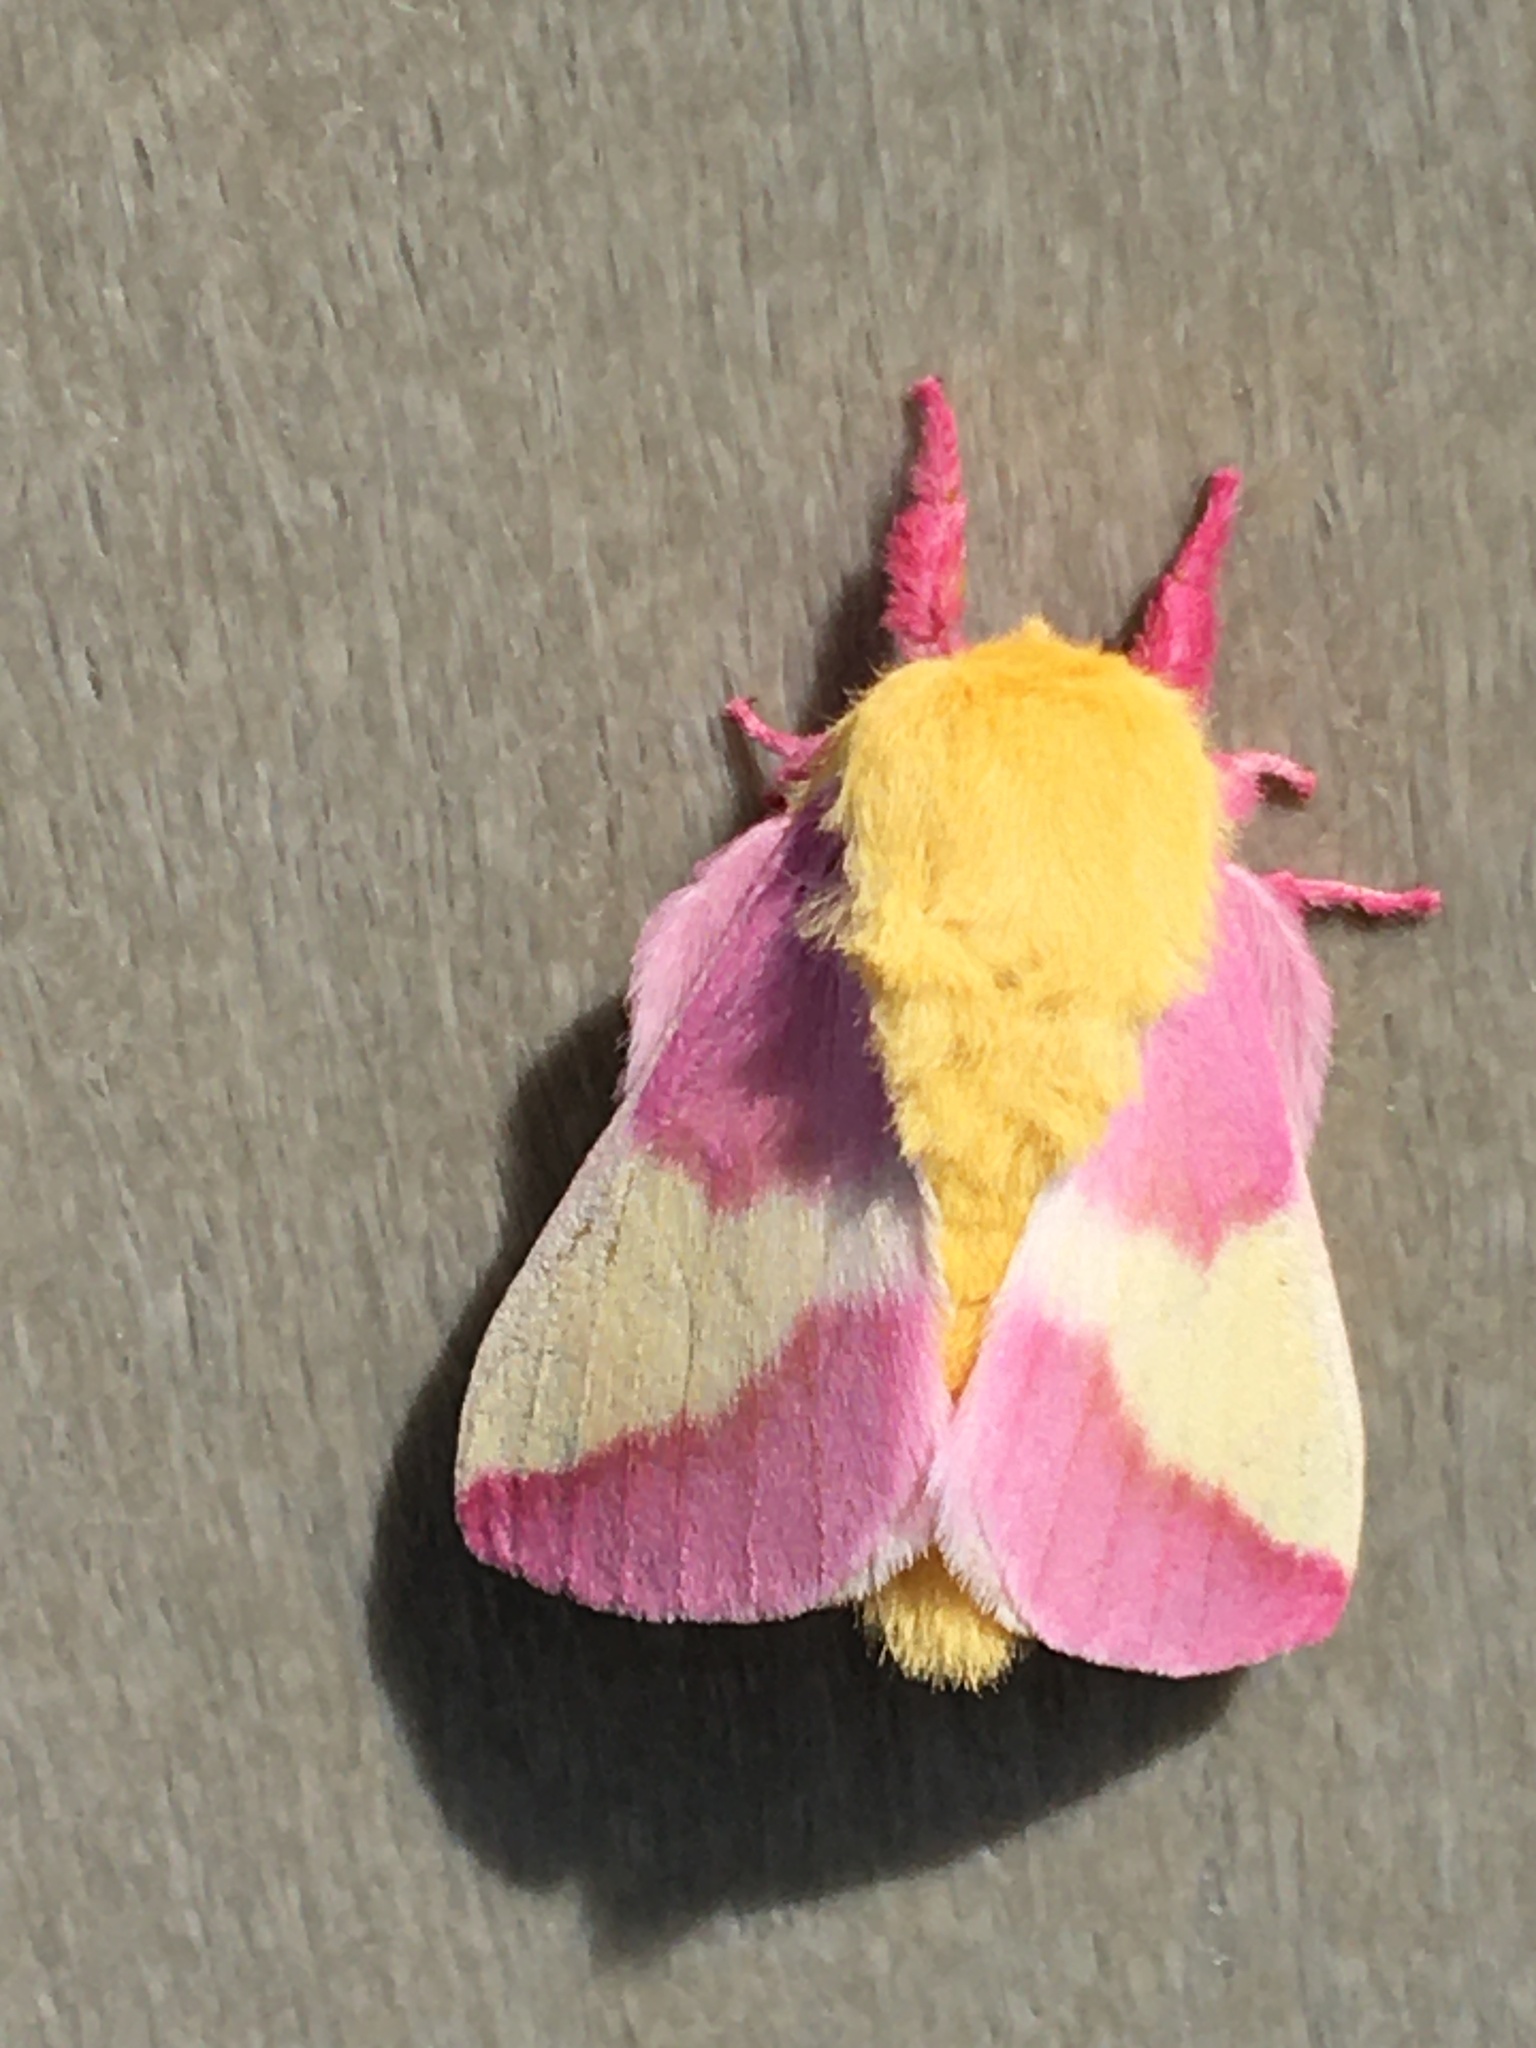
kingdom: Animalia
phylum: Arthropoda
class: Insecta
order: Lepidoptera
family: Saturniidae
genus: Dryocampa
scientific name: Dryocampa rubicunda
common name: Rosy maple moth
